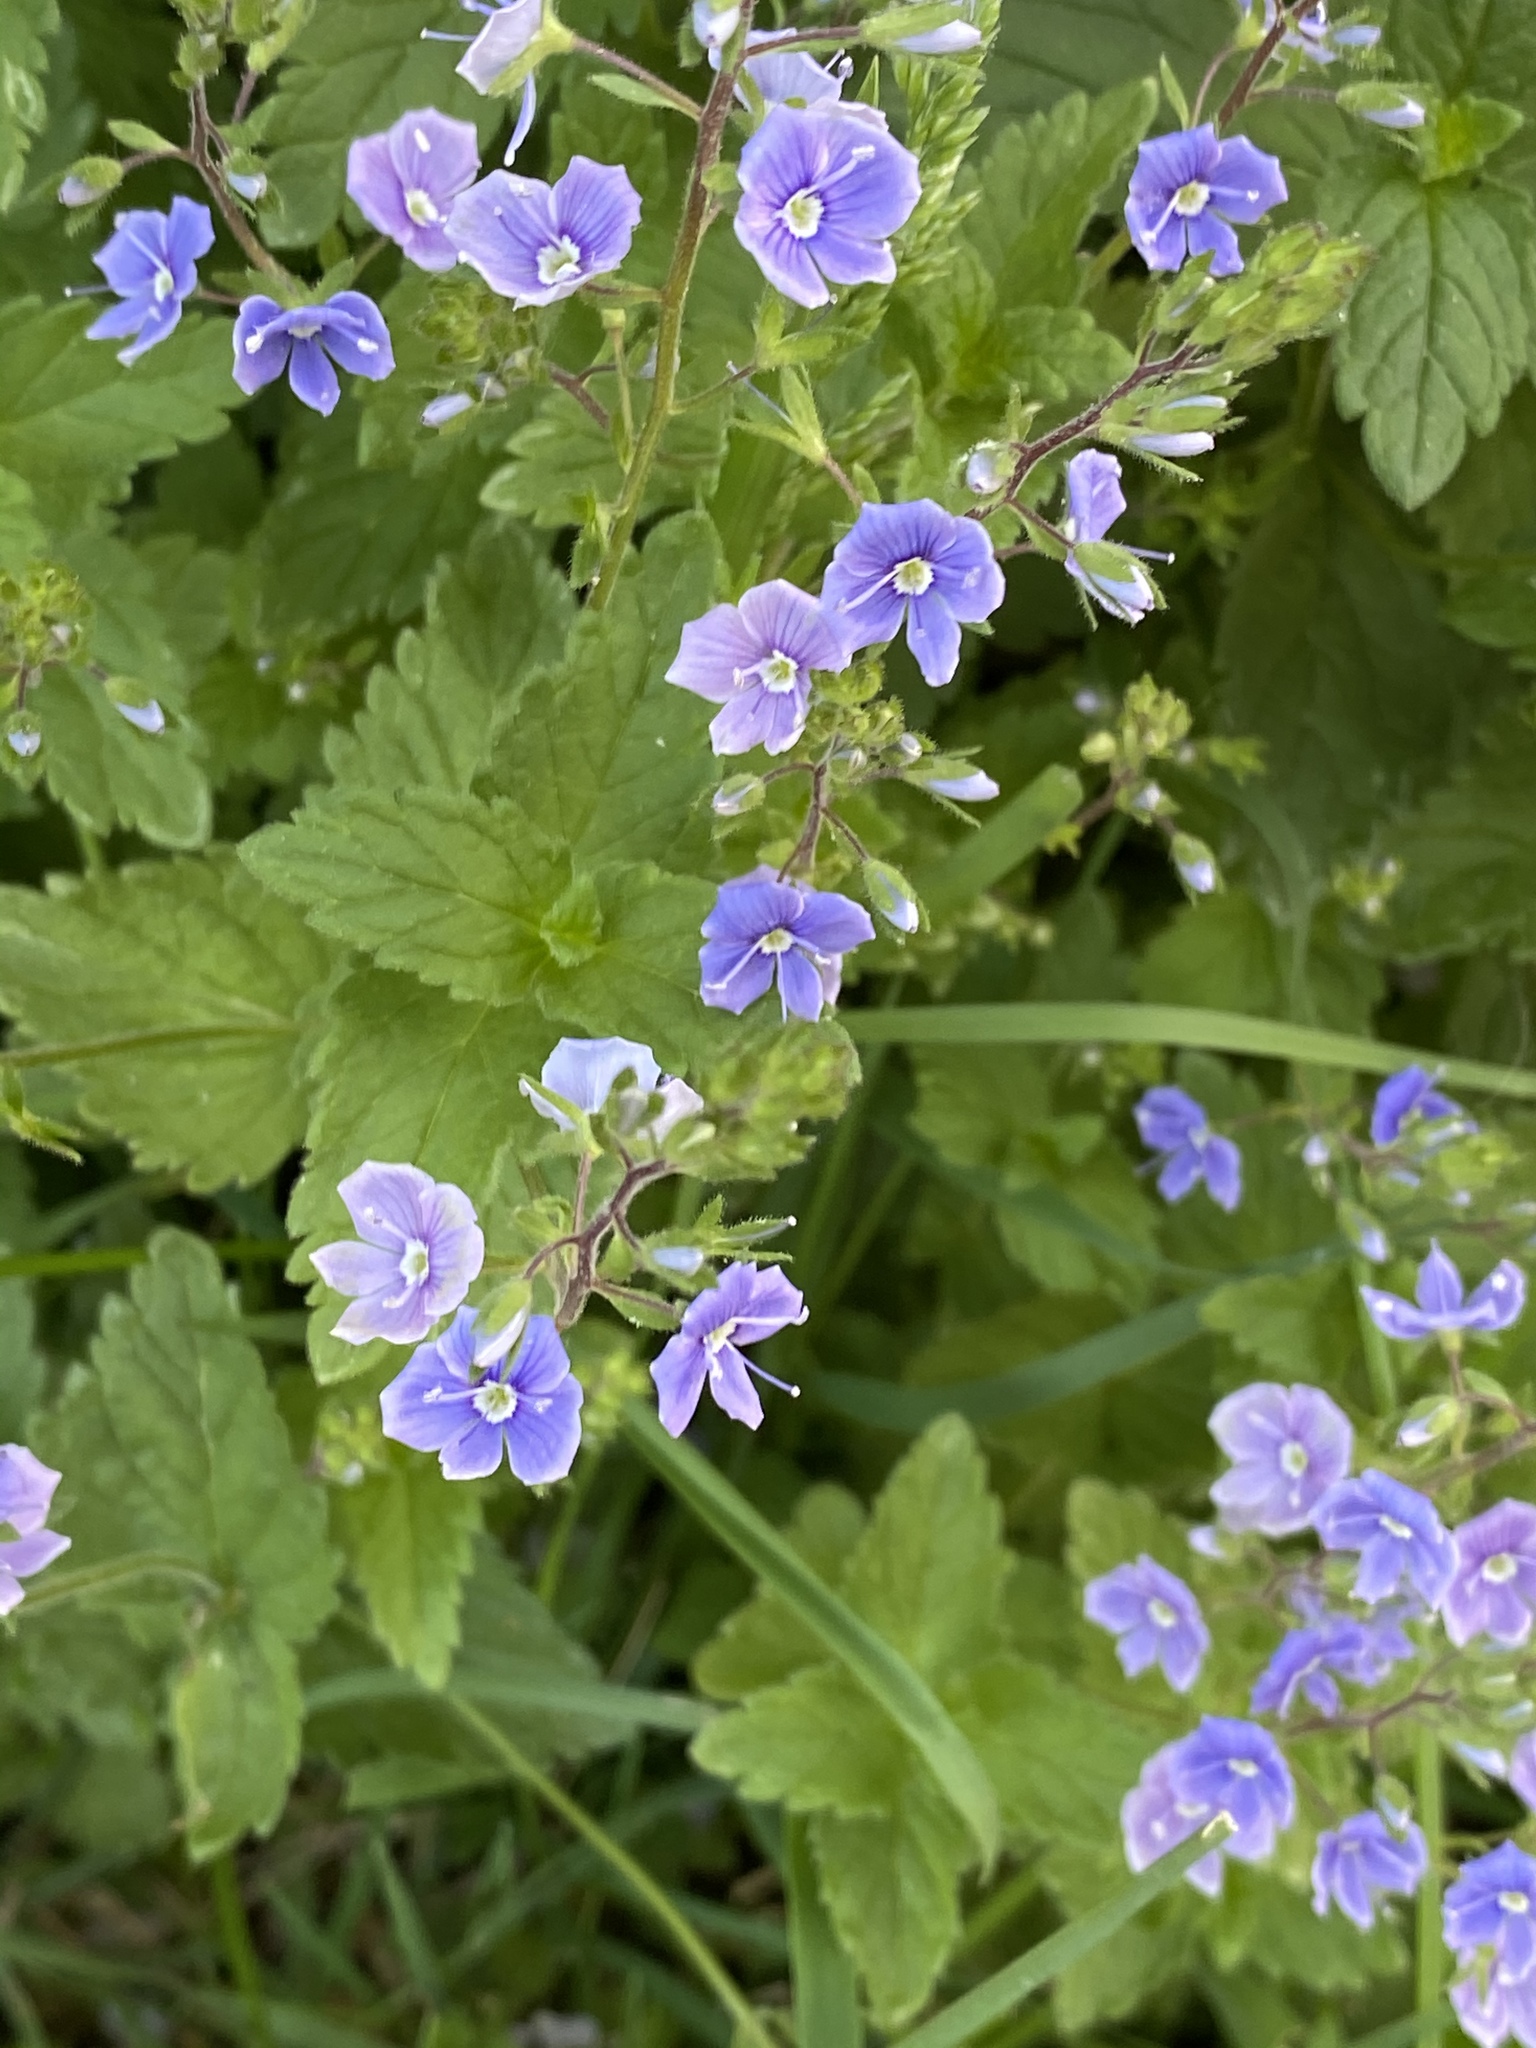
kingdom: Plantae
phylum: Tracheophyta
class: Magnoliopsida
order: Lamiales
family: Plantaginaceae
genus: Veronica
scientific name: Veronica chamaedrys
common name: Germander speedwell
